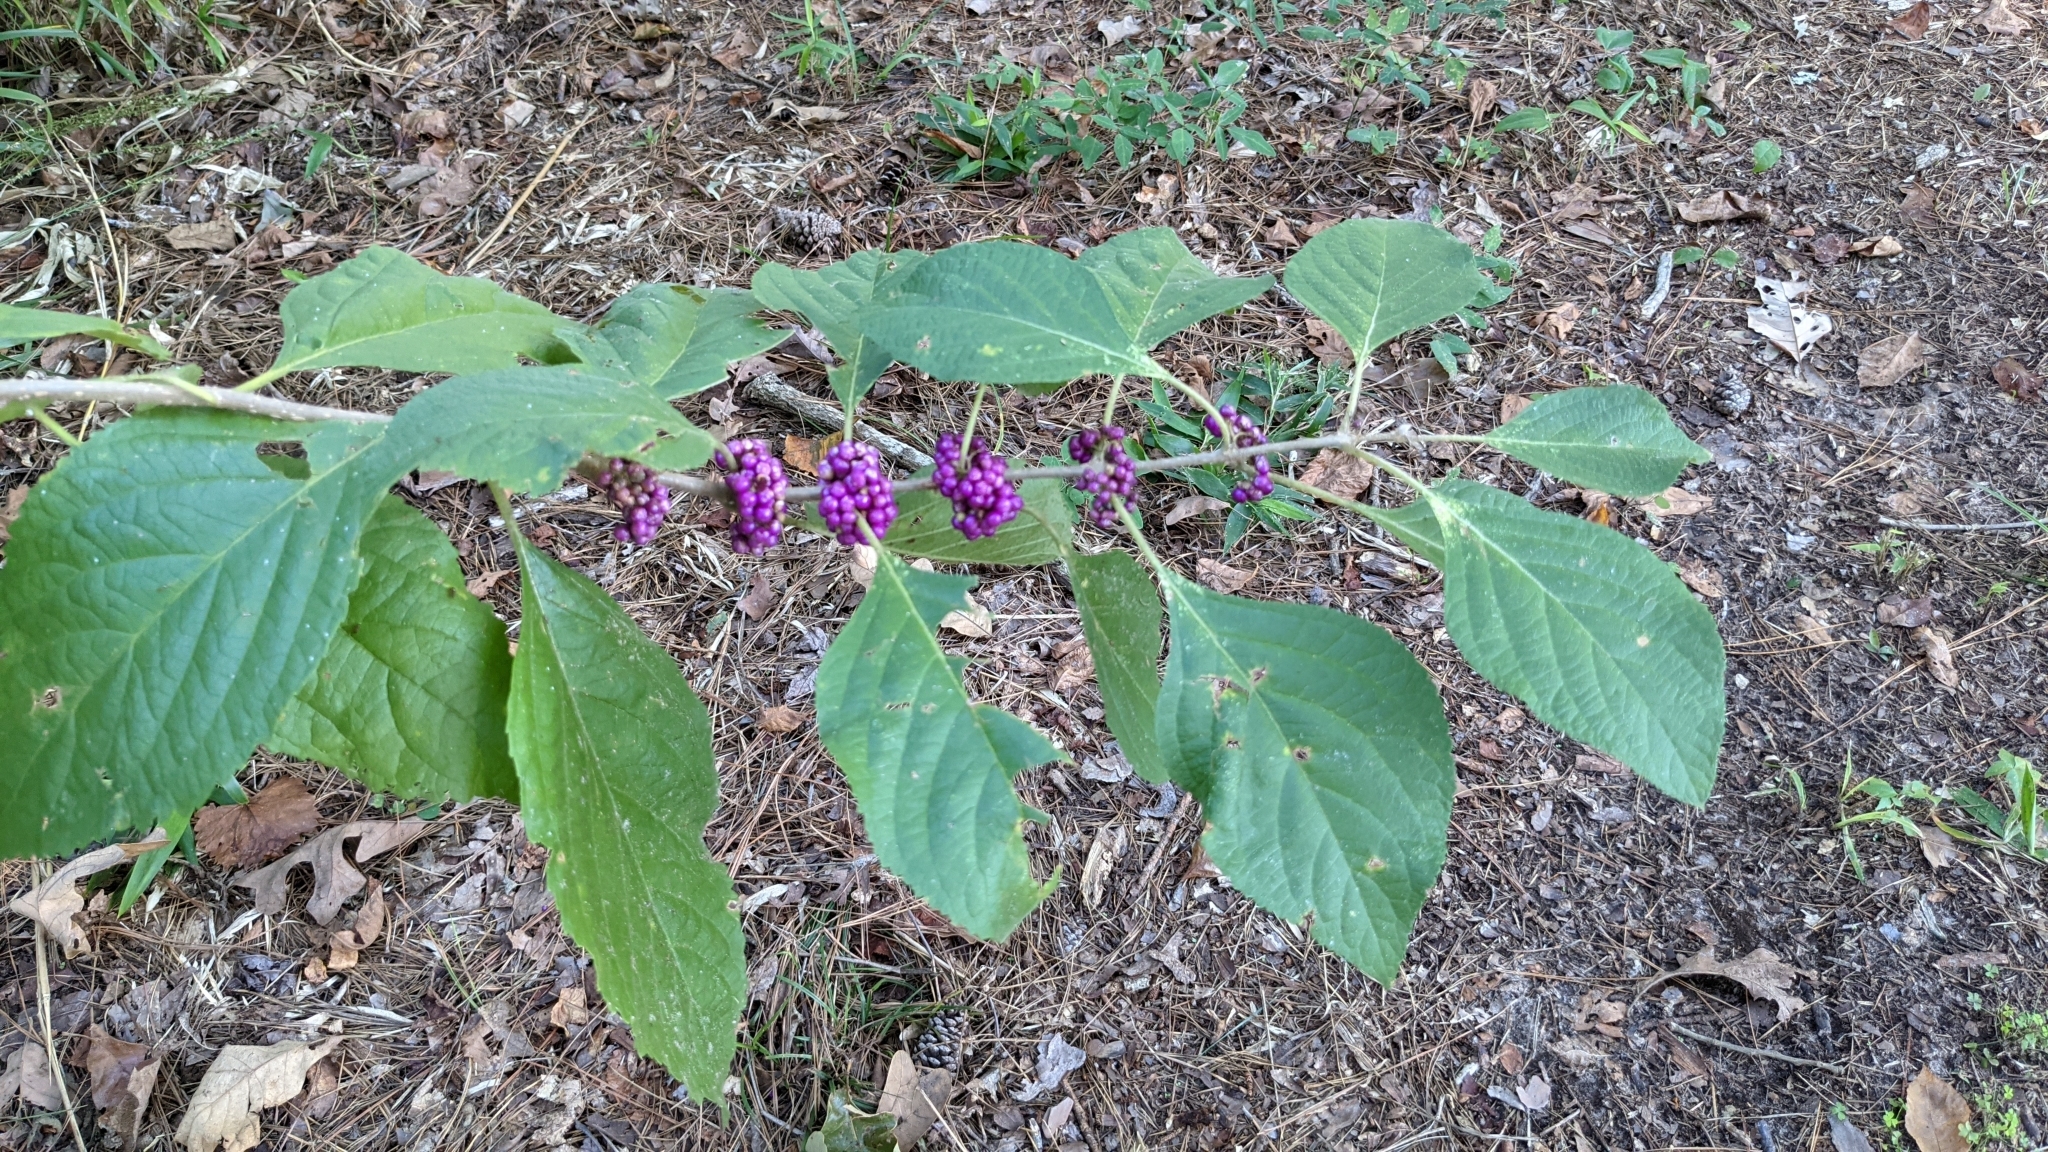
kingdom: Plantae
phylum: Tracheophyta
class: Magnoliopsida
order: Lamiales
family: Lamiaceae
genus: Callicarpa
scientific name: Callicarpa americana
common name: American beautyberry
